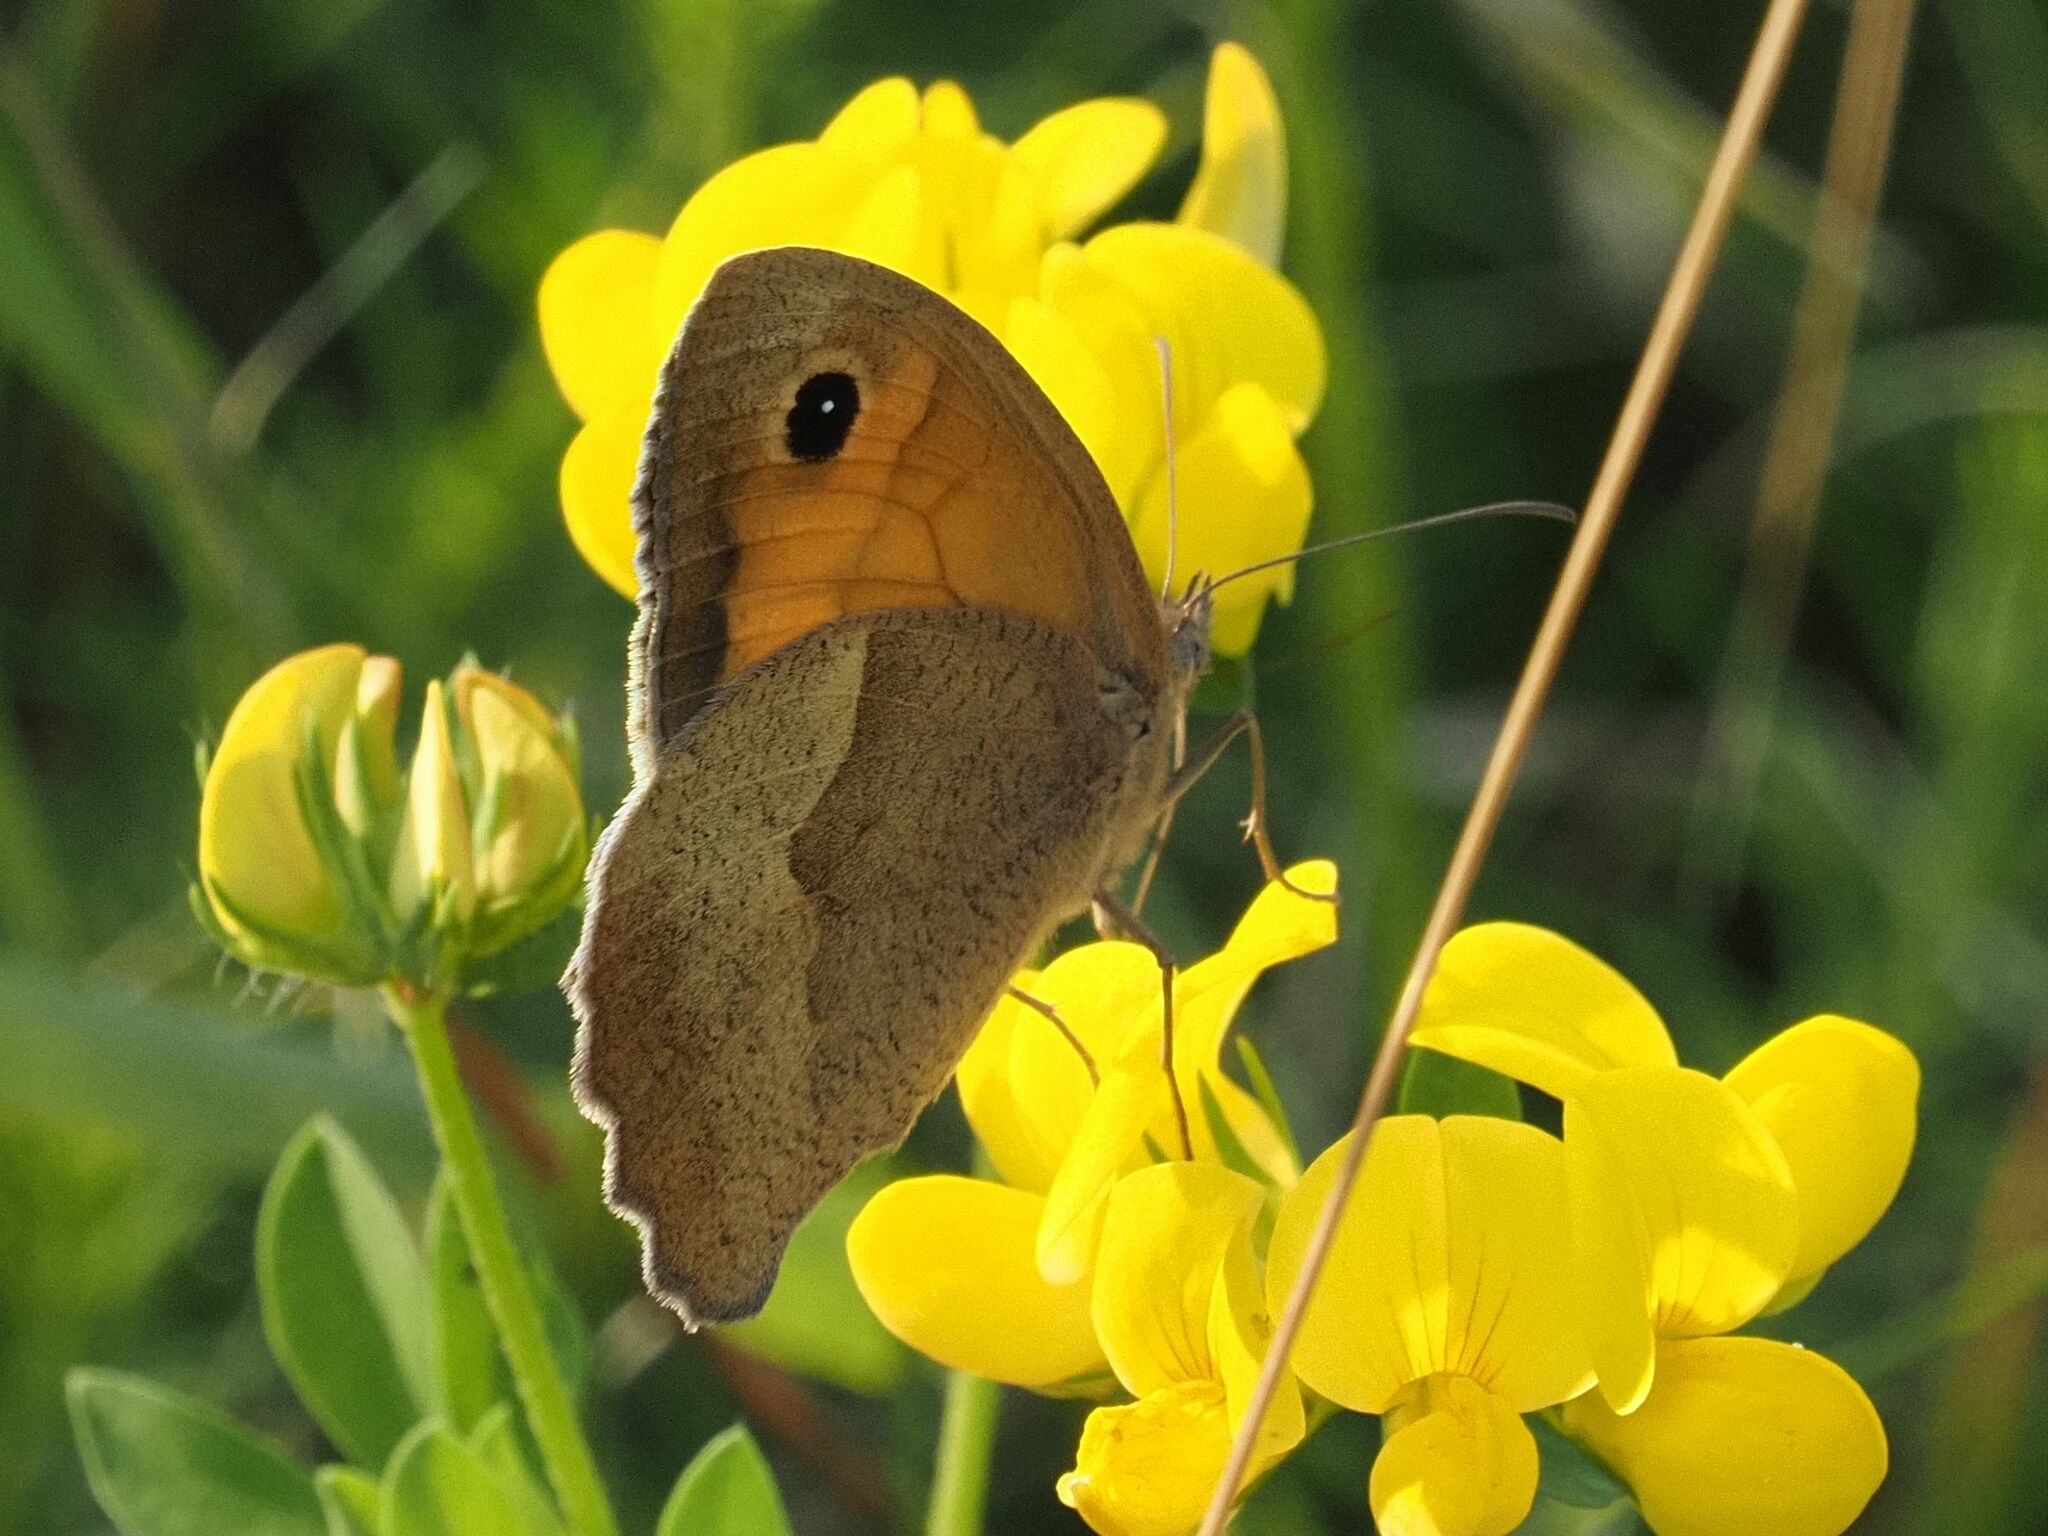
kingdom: Animalia
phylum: Arthropoda
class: Insecta
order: Lepidoptera
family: Nymphalidae
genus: Maniola
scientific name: Maniola jurtina
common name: Meadow brown
